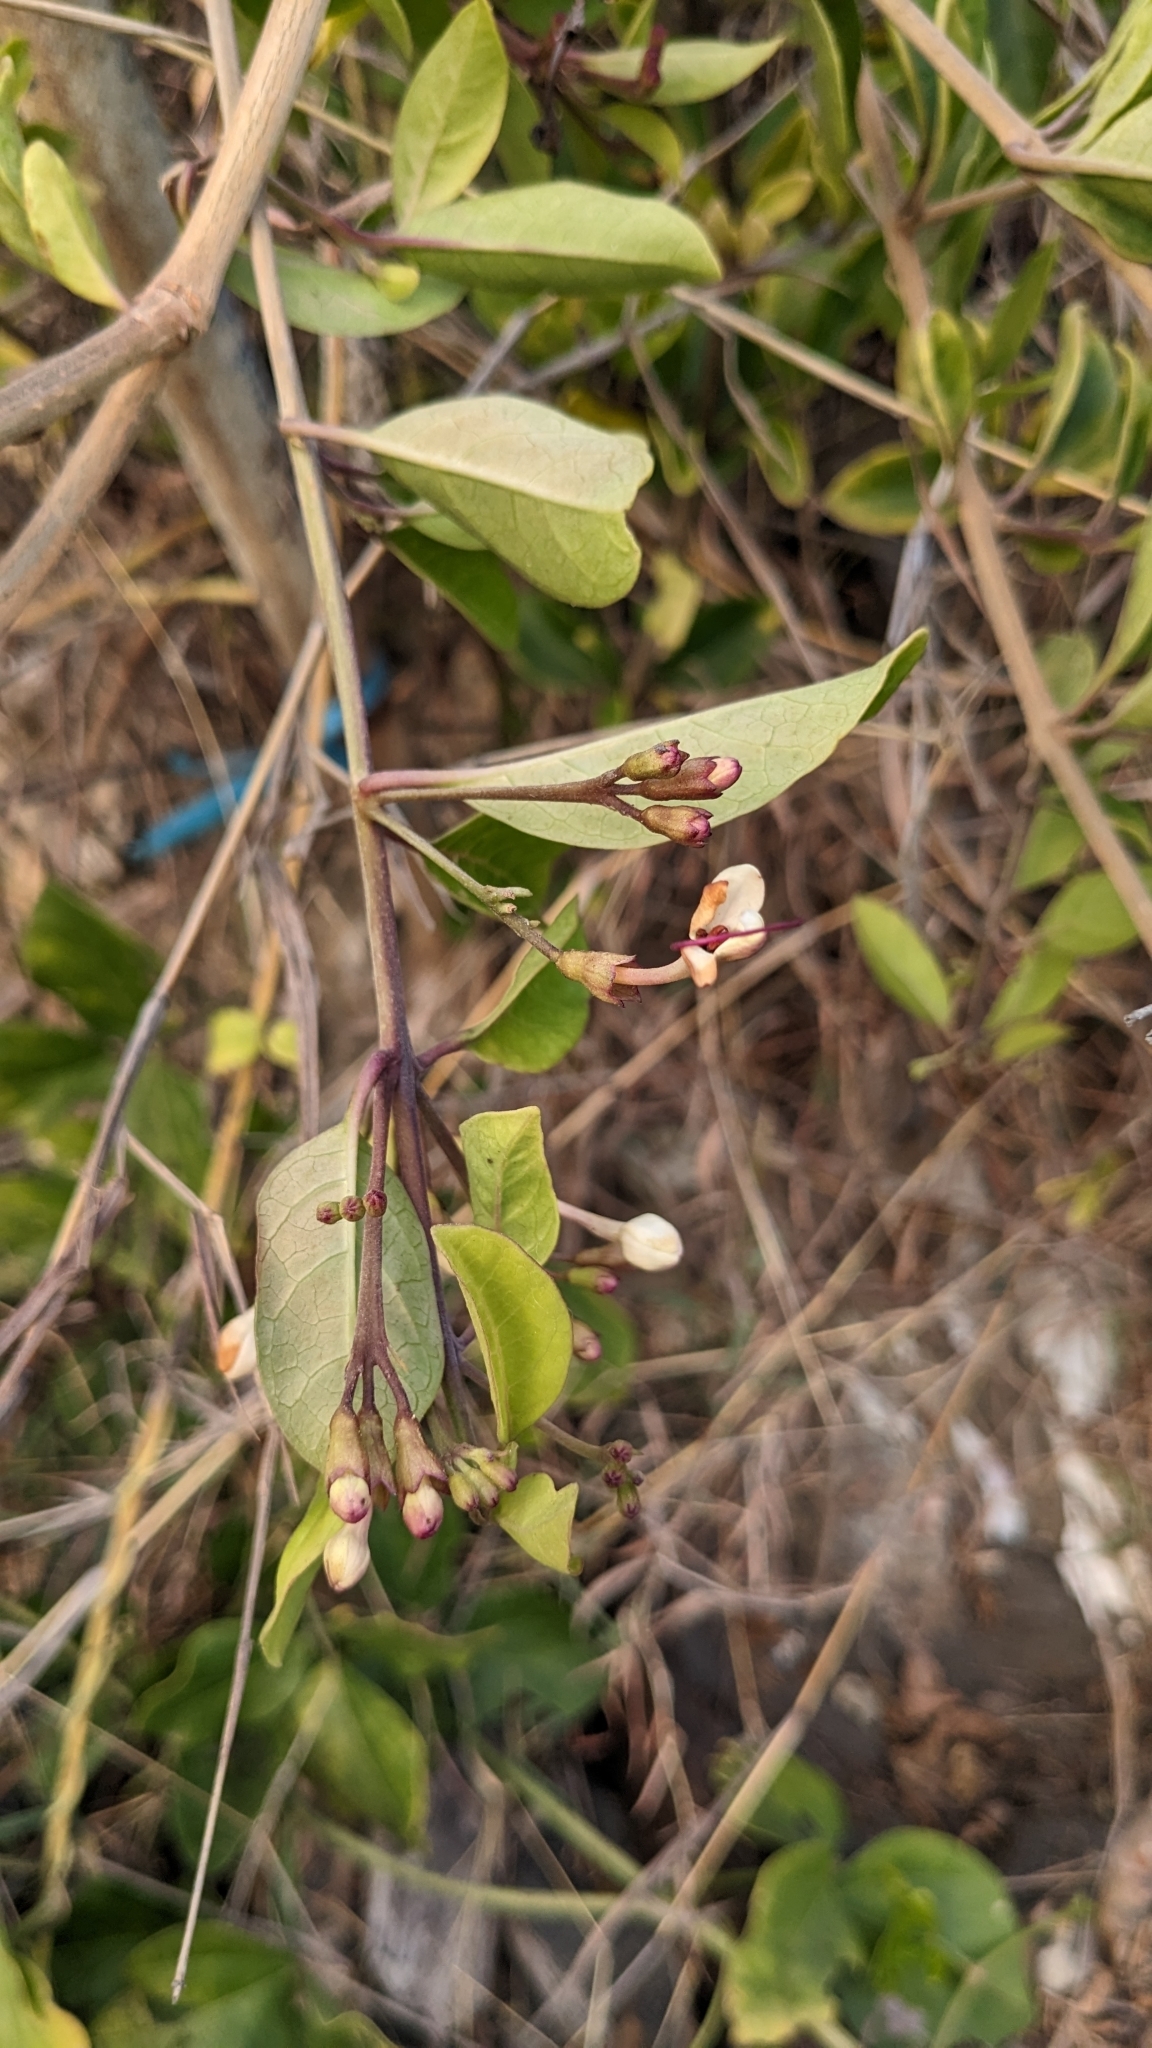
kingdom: Plantae
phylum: Tracheophyta
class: Magnoliopsida
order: Lamiales
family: Lamiaceae
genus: Volkameria
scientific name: Volkameria inermis
